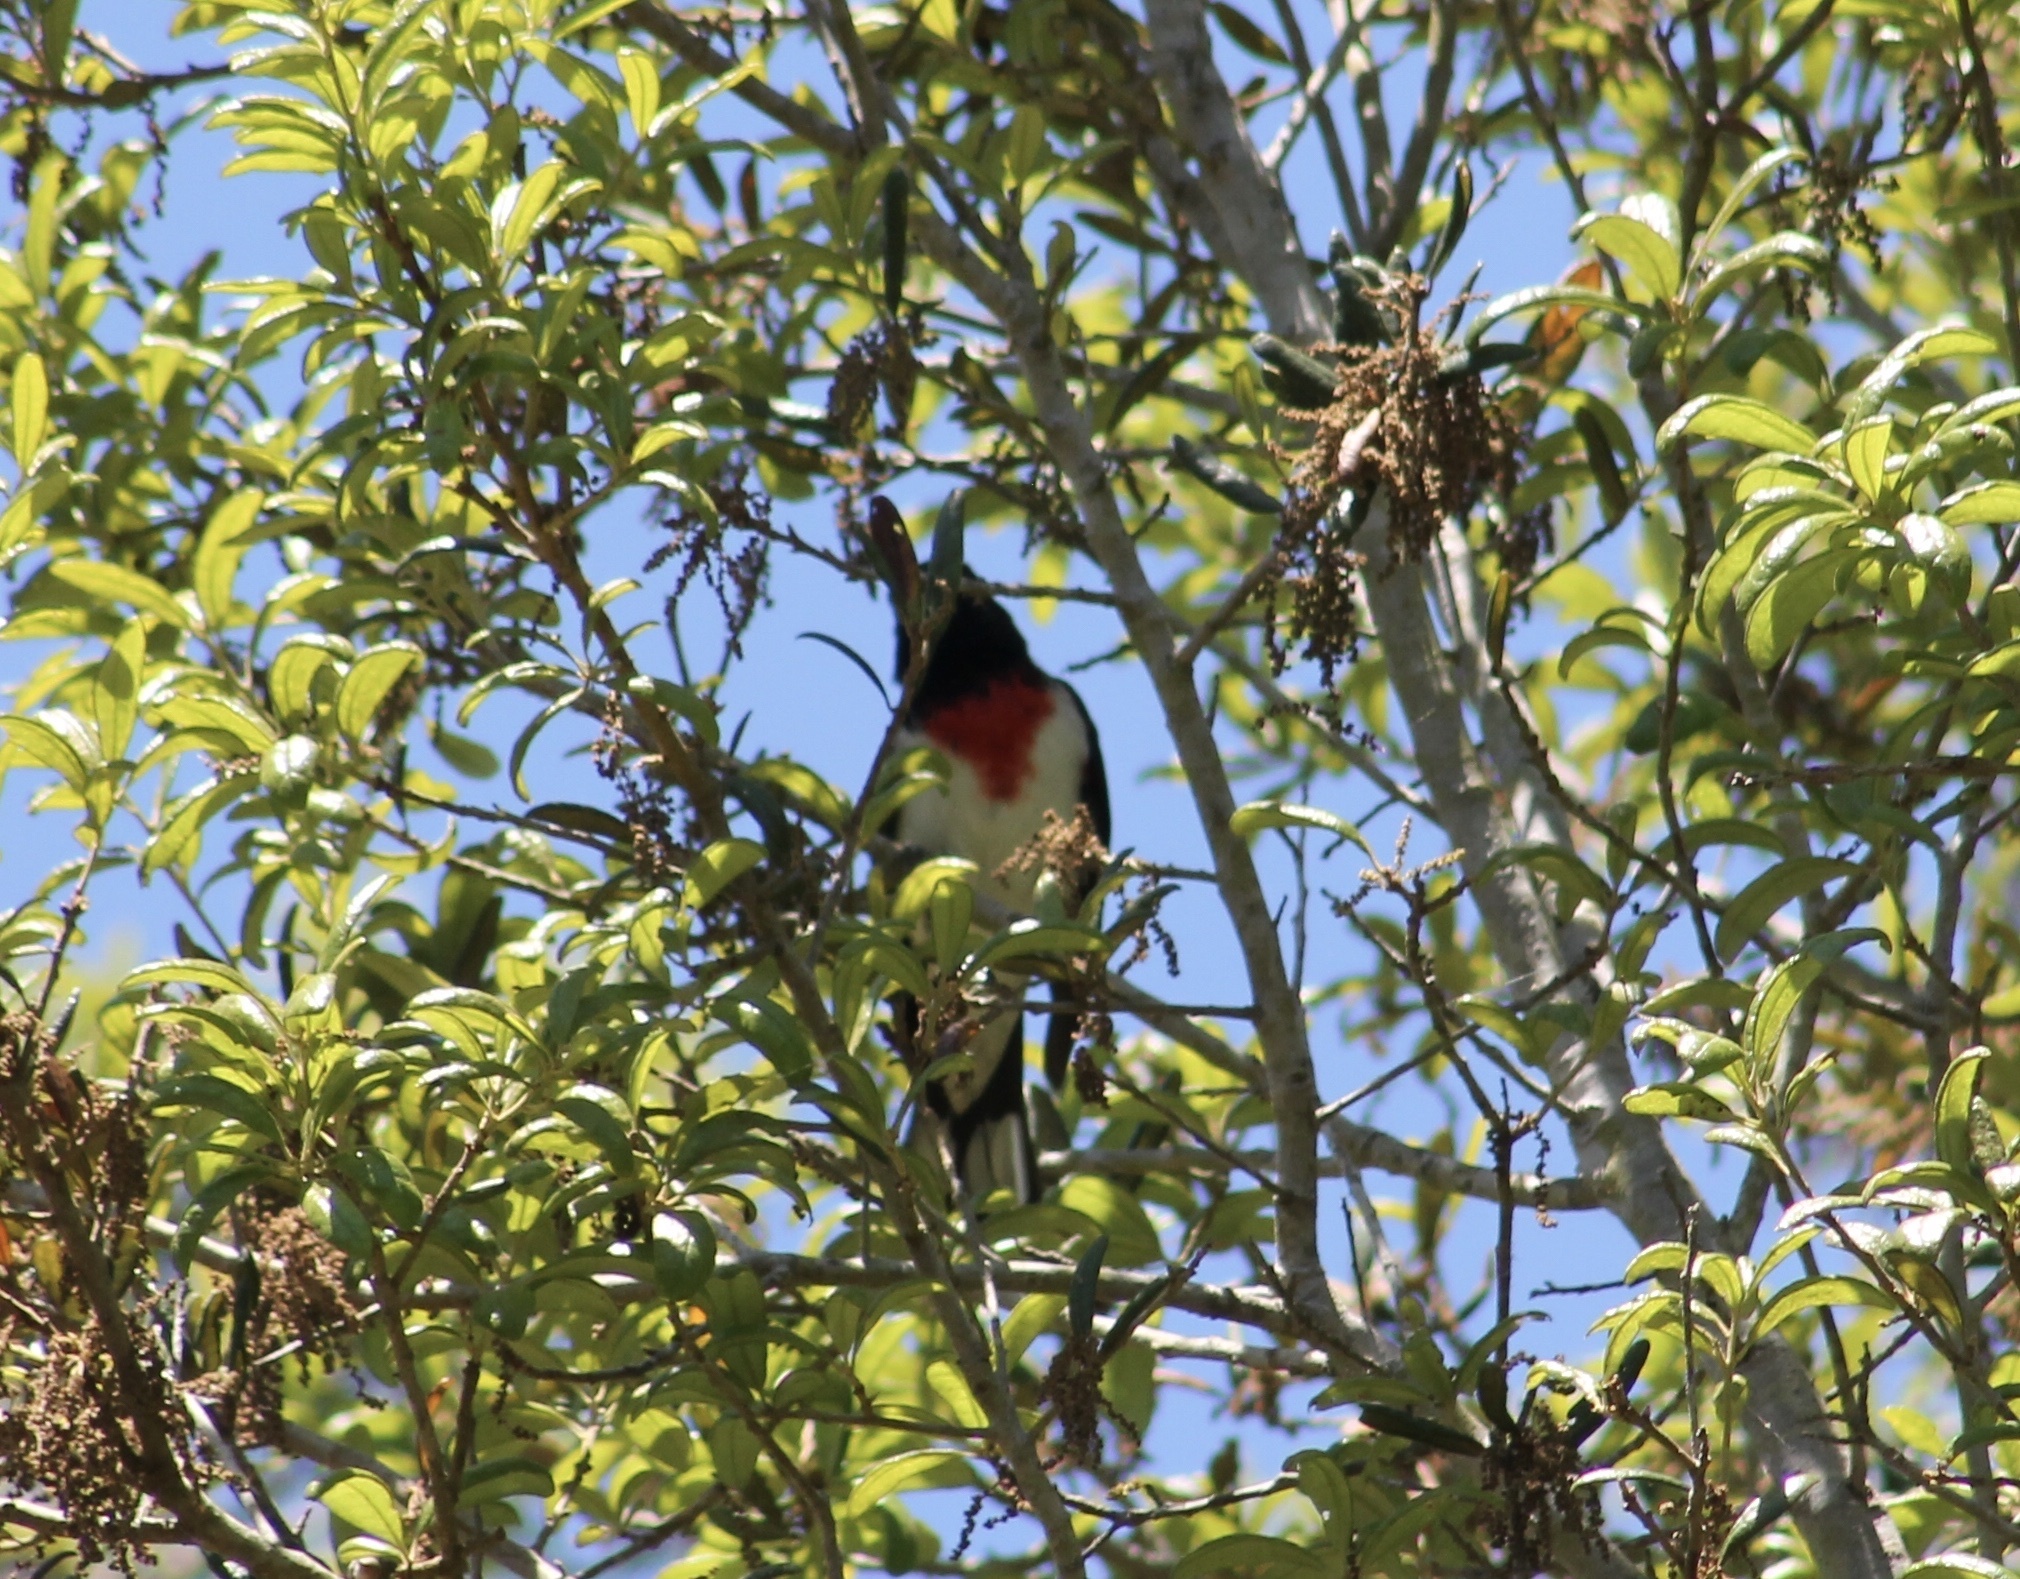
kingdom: Animalia
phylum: Chordata
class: Aves
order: Passeriformes
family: Cardinalidae
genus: Pheucticus
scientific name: Pheucticus ludovicianus
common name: Rose-breasted grosbeak
